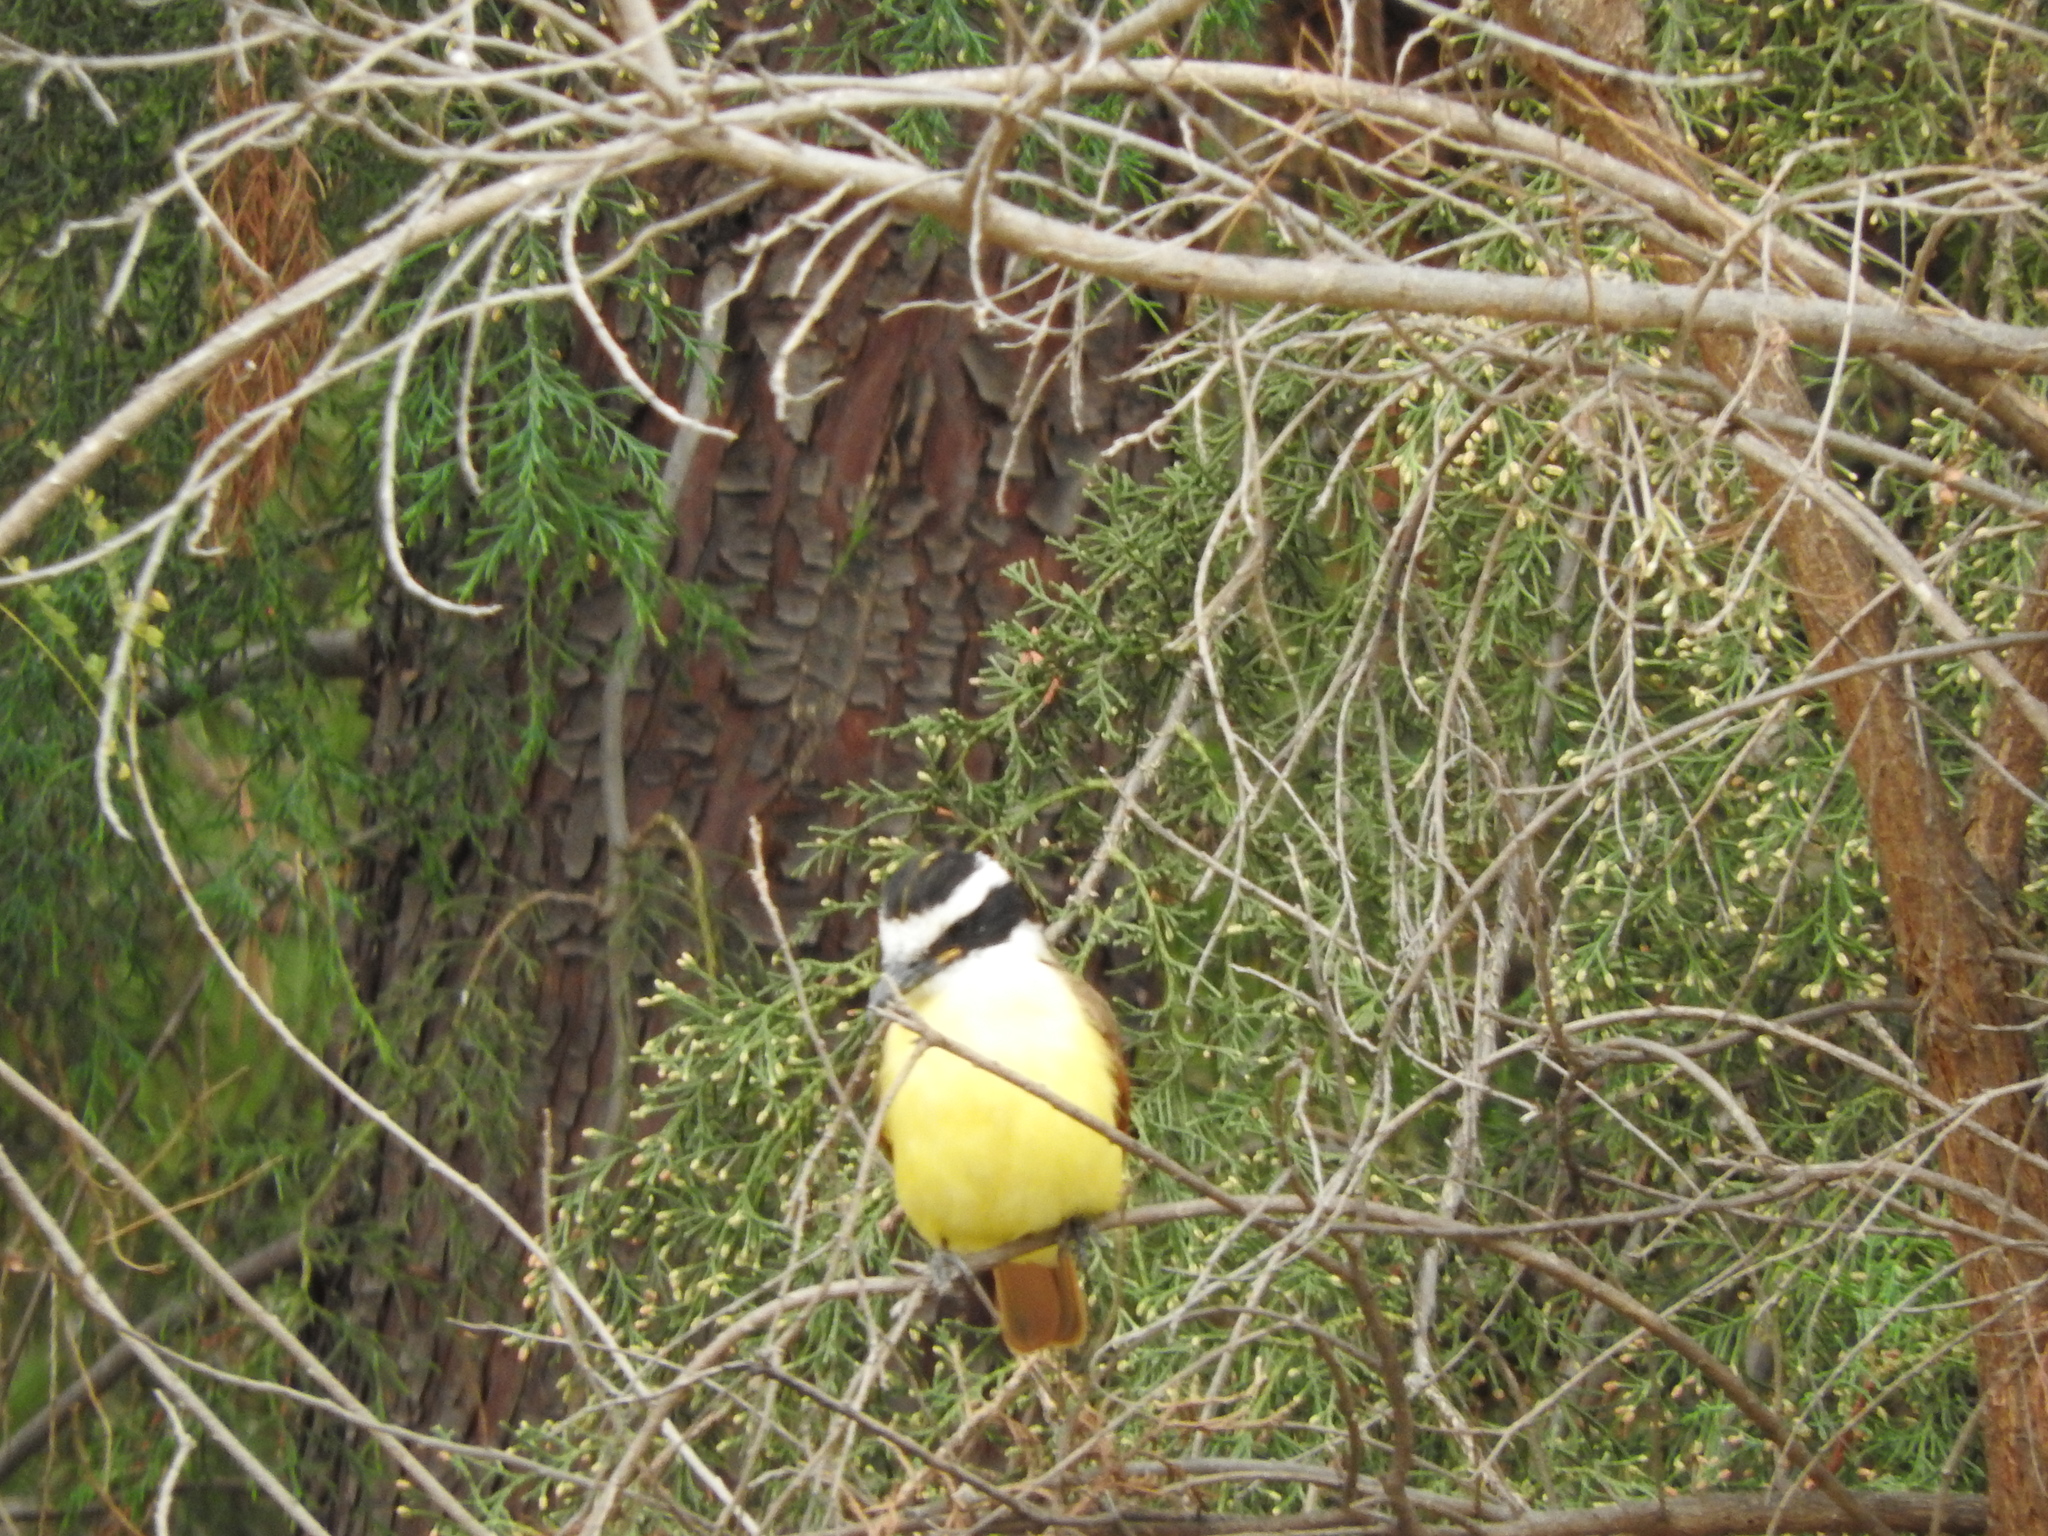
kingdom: Animalia
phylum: Chordata
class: Aves
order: Passeriformes
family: Tyrannidae
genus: Pitangus
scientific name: Pitangus sulphuratus
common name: Great kiskadee
